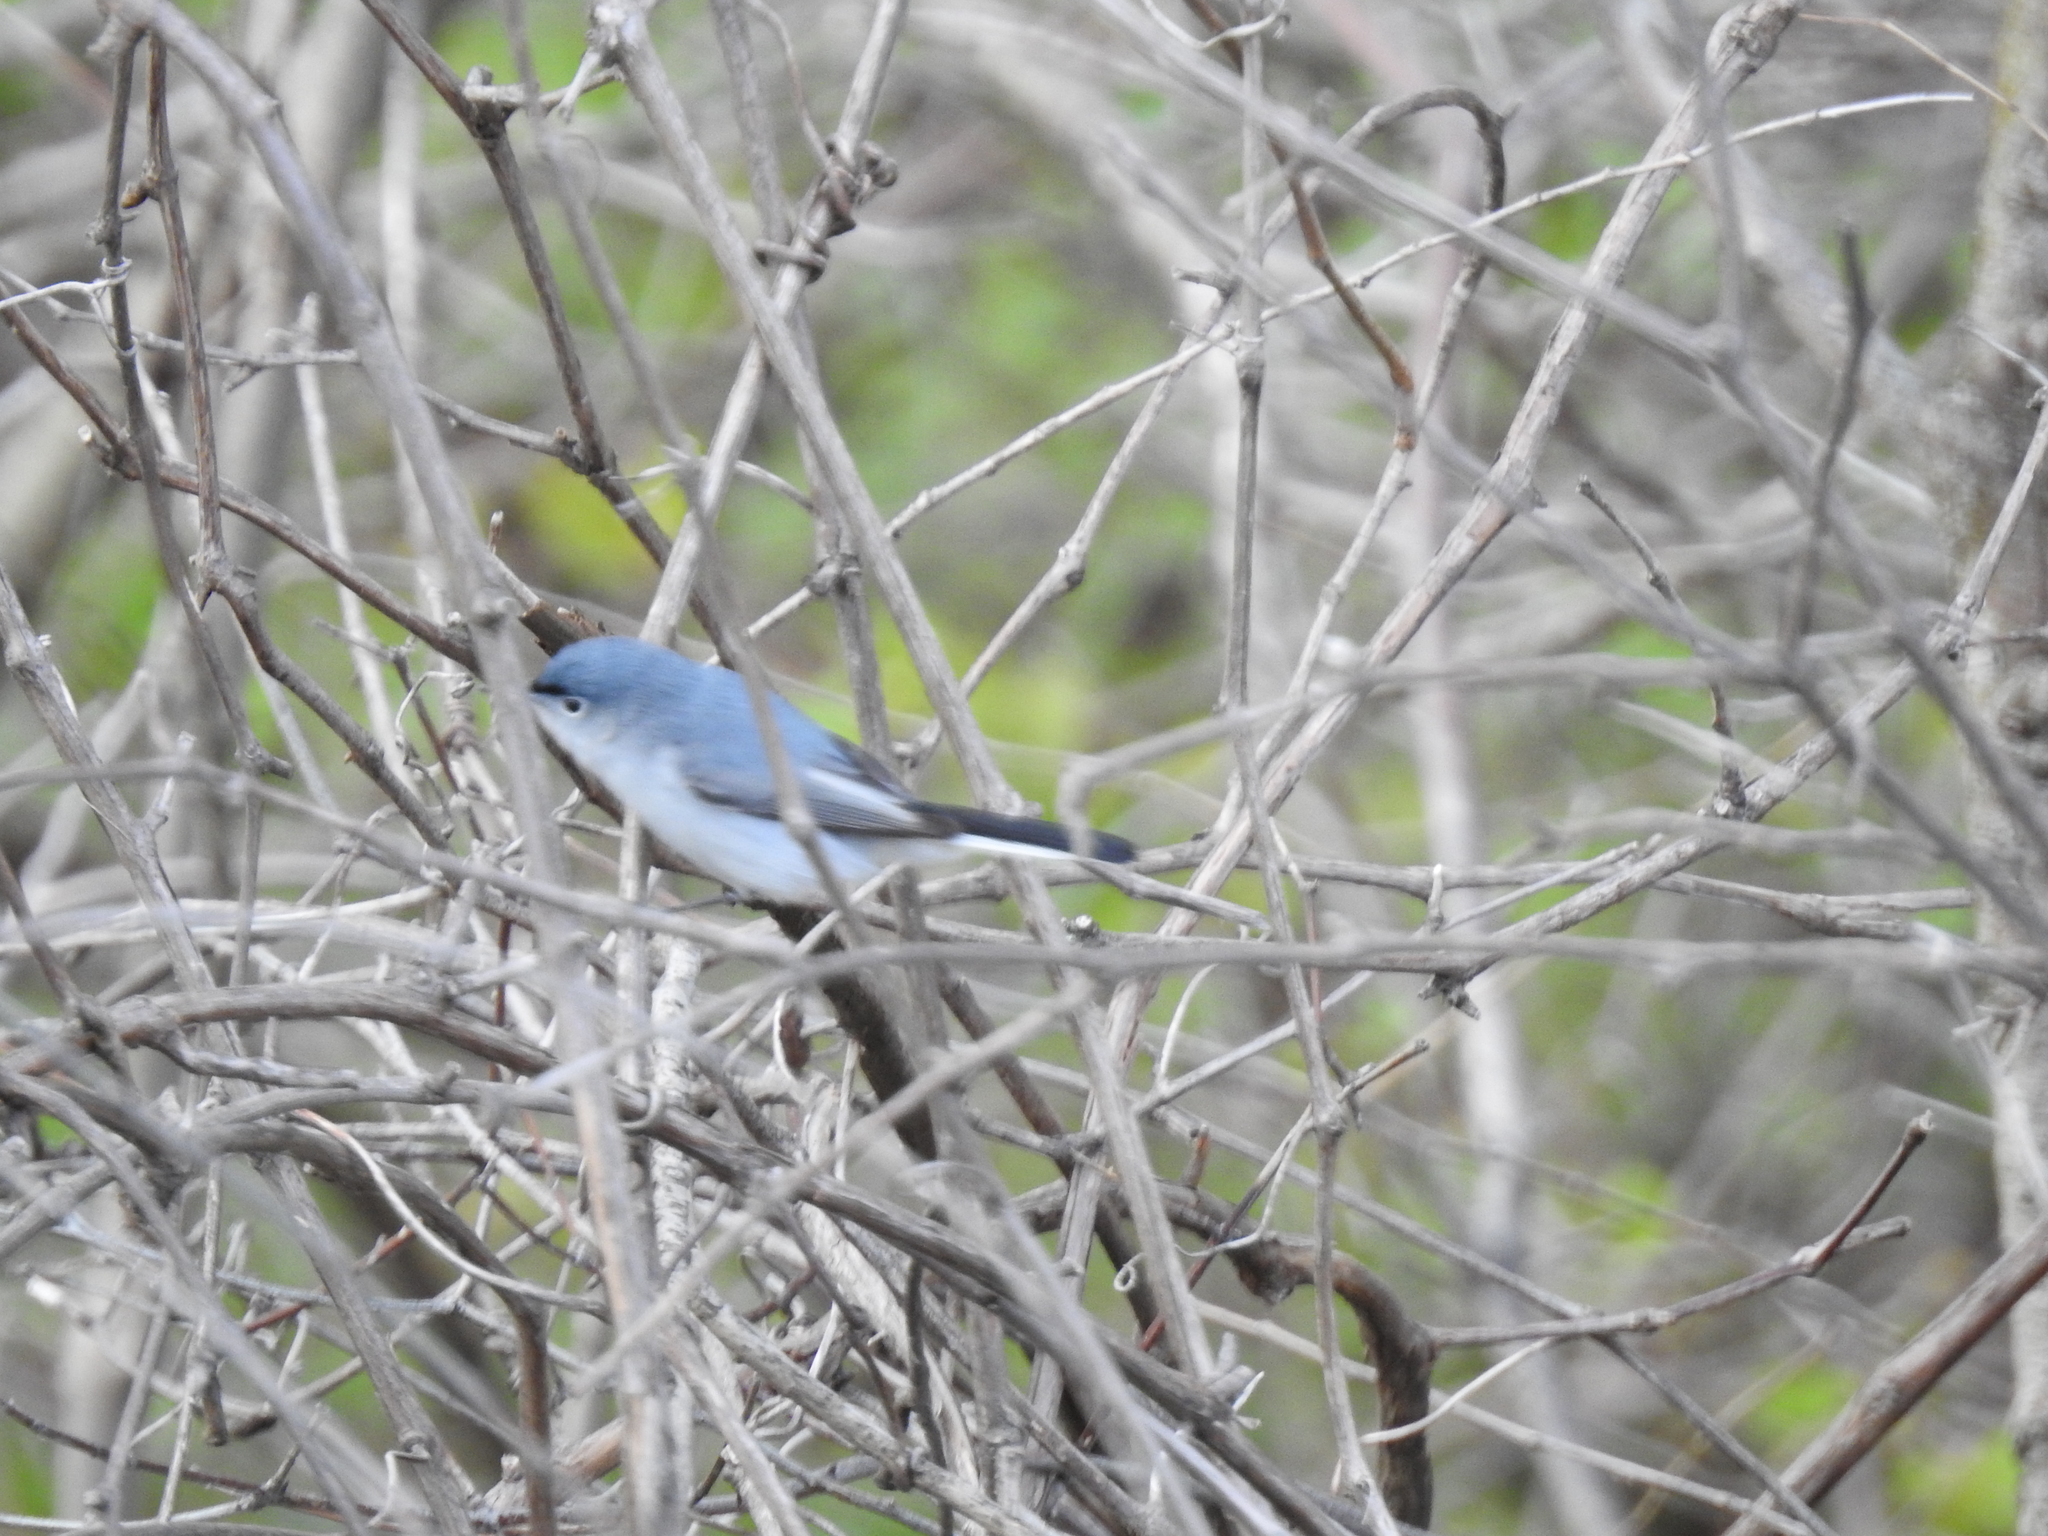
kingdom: Animalia
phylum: Chordata
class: Aves
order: Passeriformes
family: Polioptilidae
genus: Polioptila
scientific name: Polioptila caerulea
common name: Blue-gray gnatcatcher
